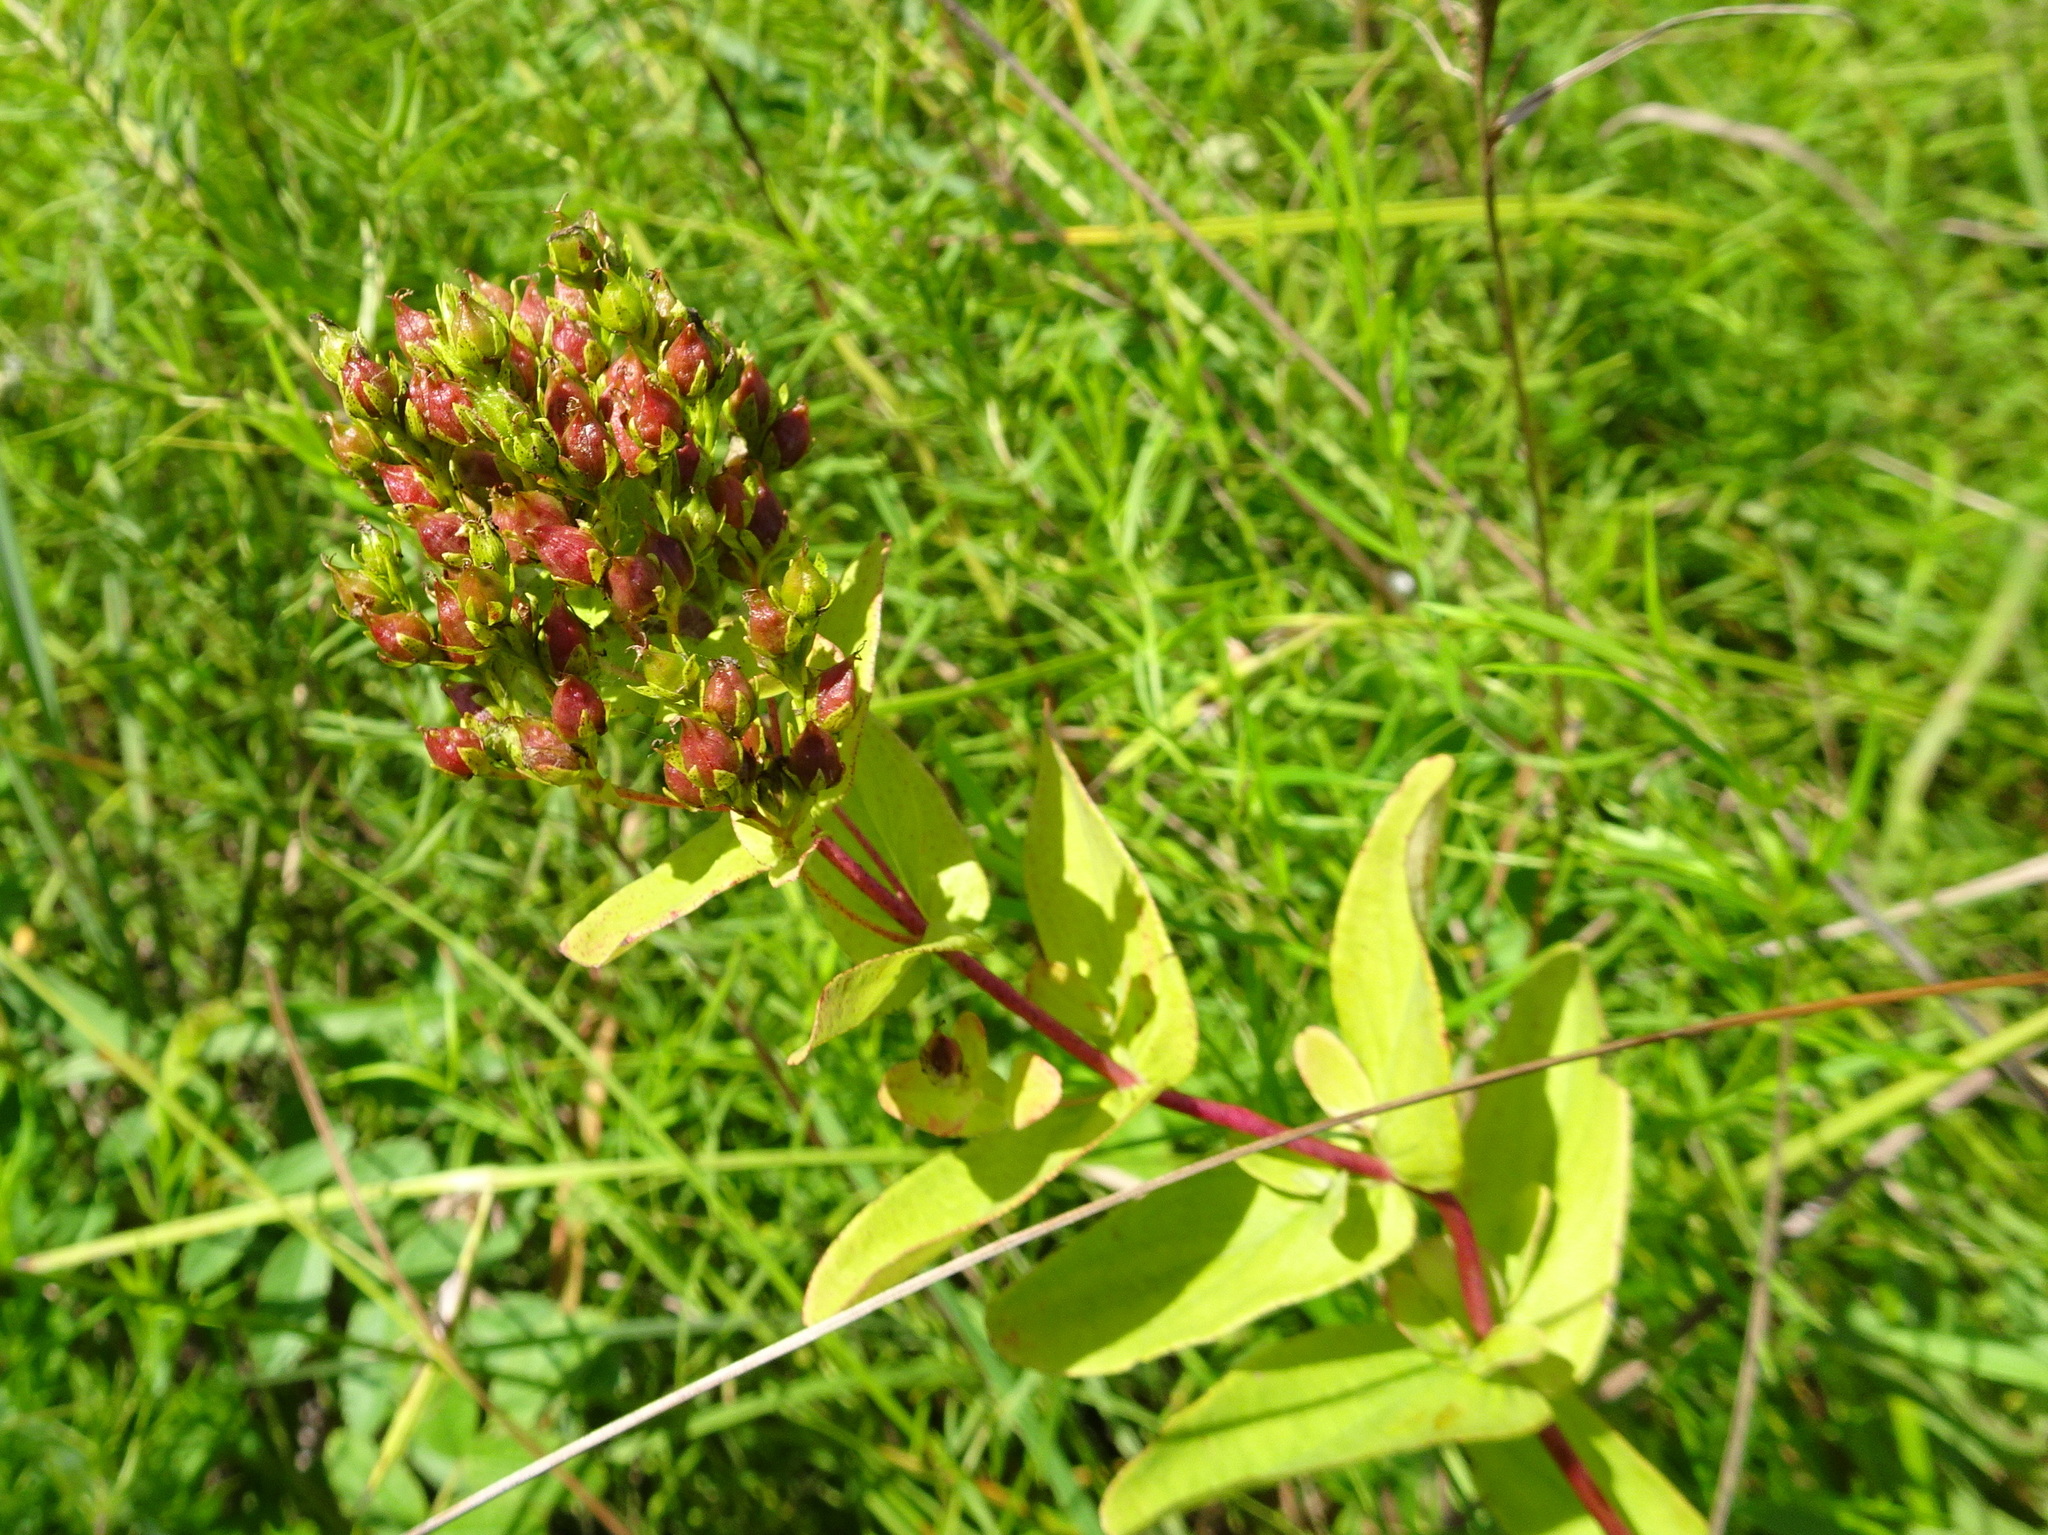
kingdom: Plantae
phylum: Tracheophyta
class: Magnoliopsida
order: Lamiales
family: Plantaginaceae
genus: Penstemon
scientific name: Penstemon cobaea
